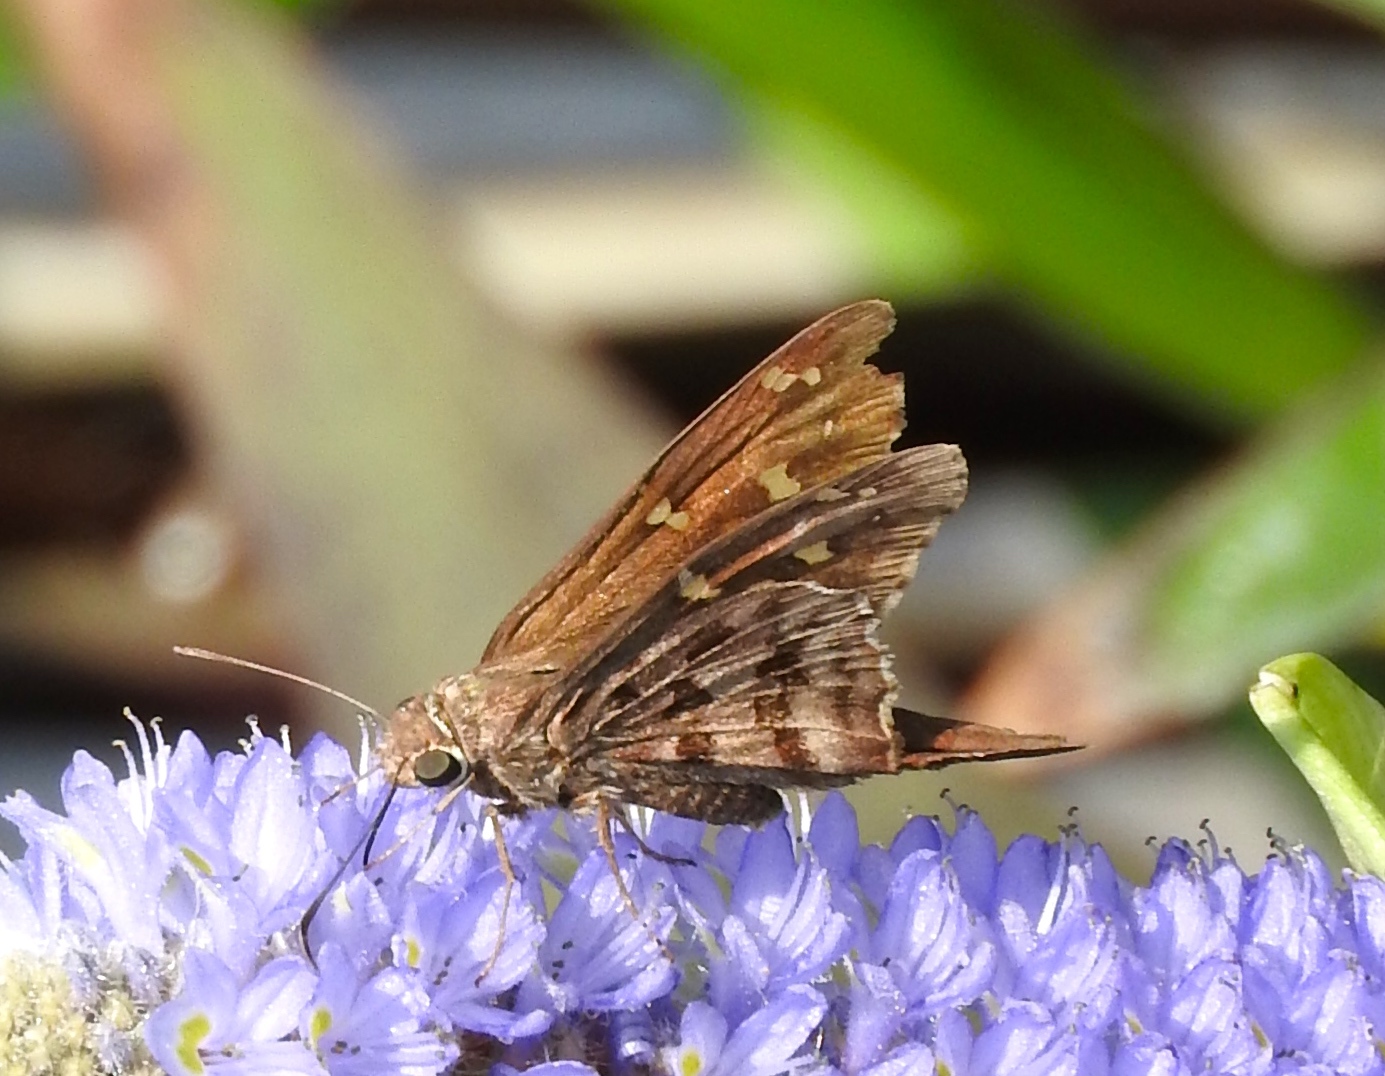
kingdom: Animalia
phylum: Arthropoda
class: Insecta
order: Lepidoptera
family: Hesperiidae
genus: Thorybes
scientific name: Thorybes
